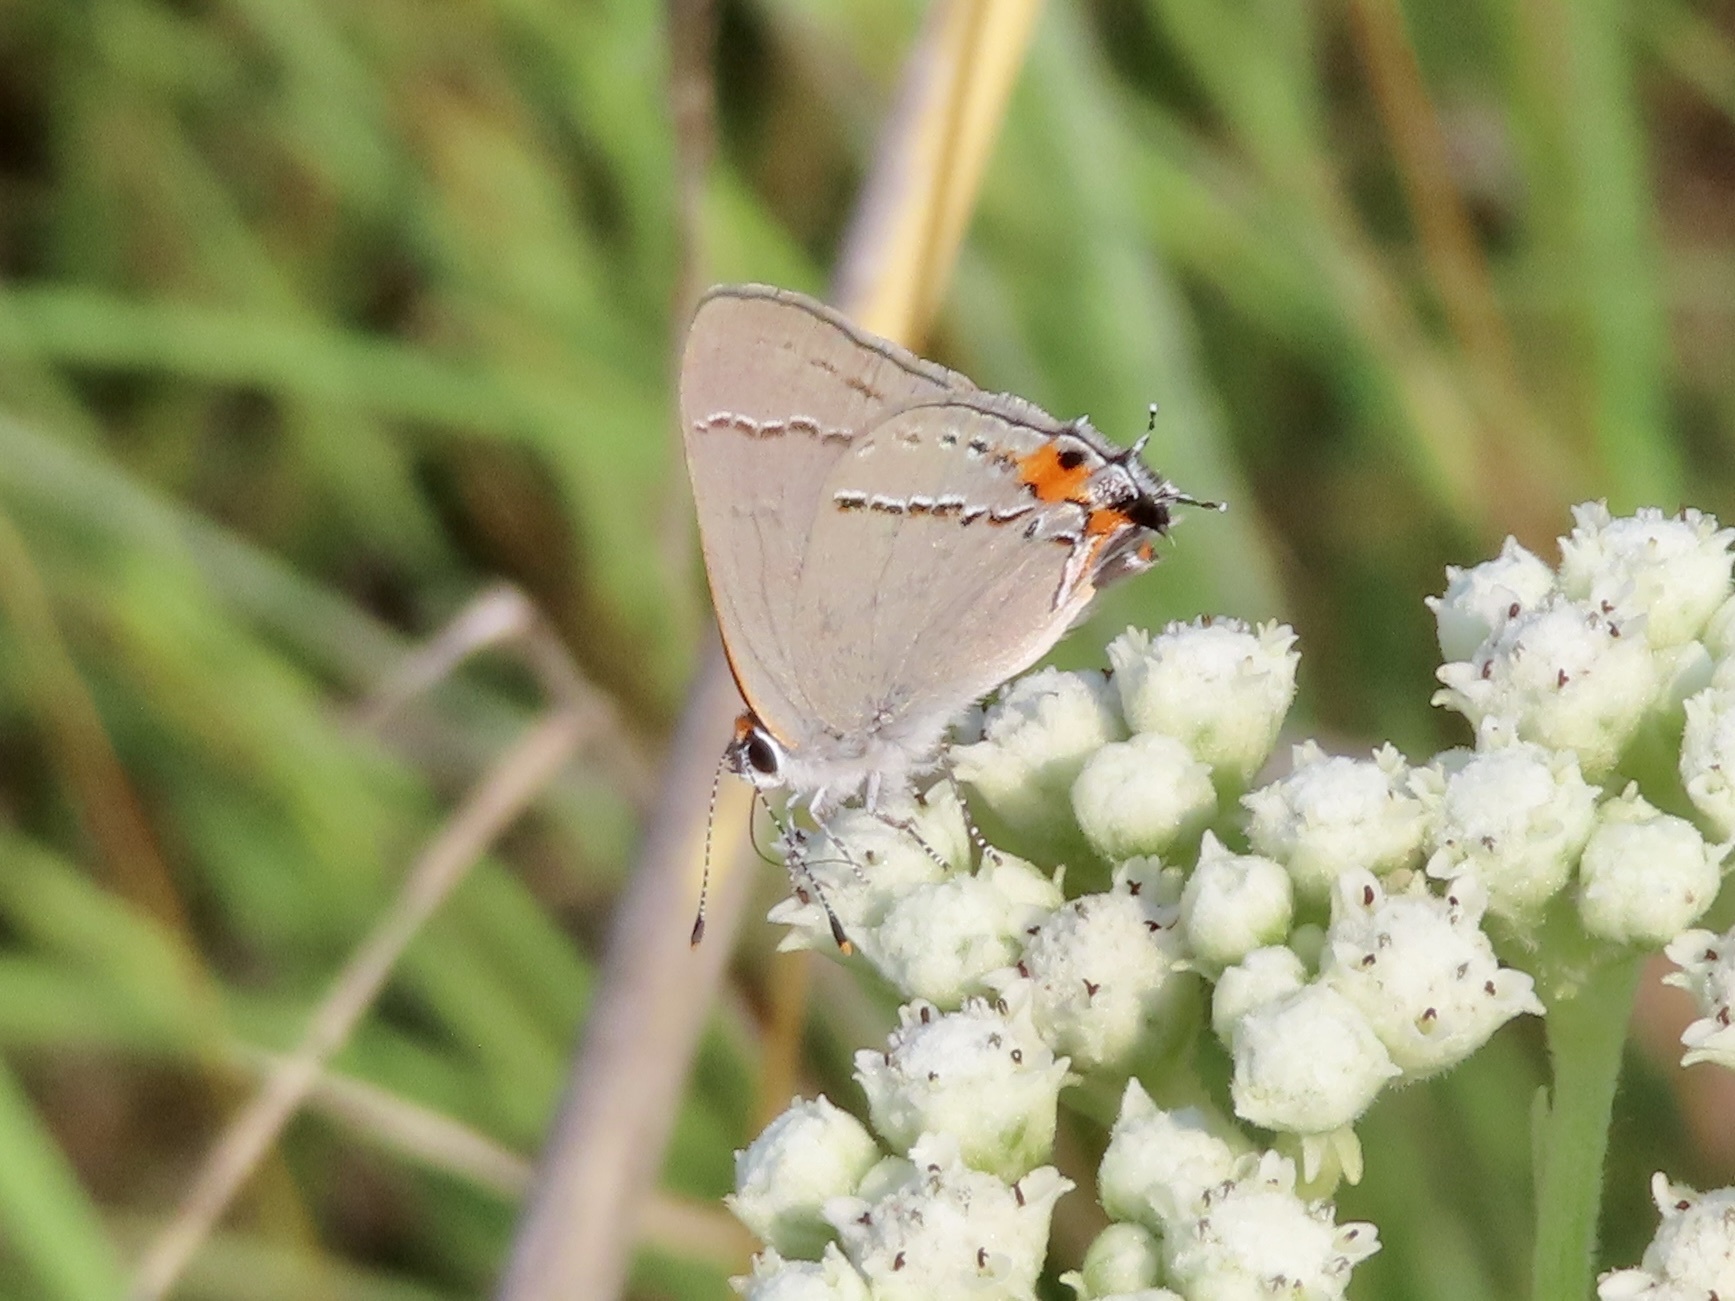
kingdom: Animalia
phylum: Arthropoda
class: Insecta
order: Lepidoptera
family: Lycaenidae
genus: Strymon
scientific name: Strymon melinus
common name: Gray hairstreak
